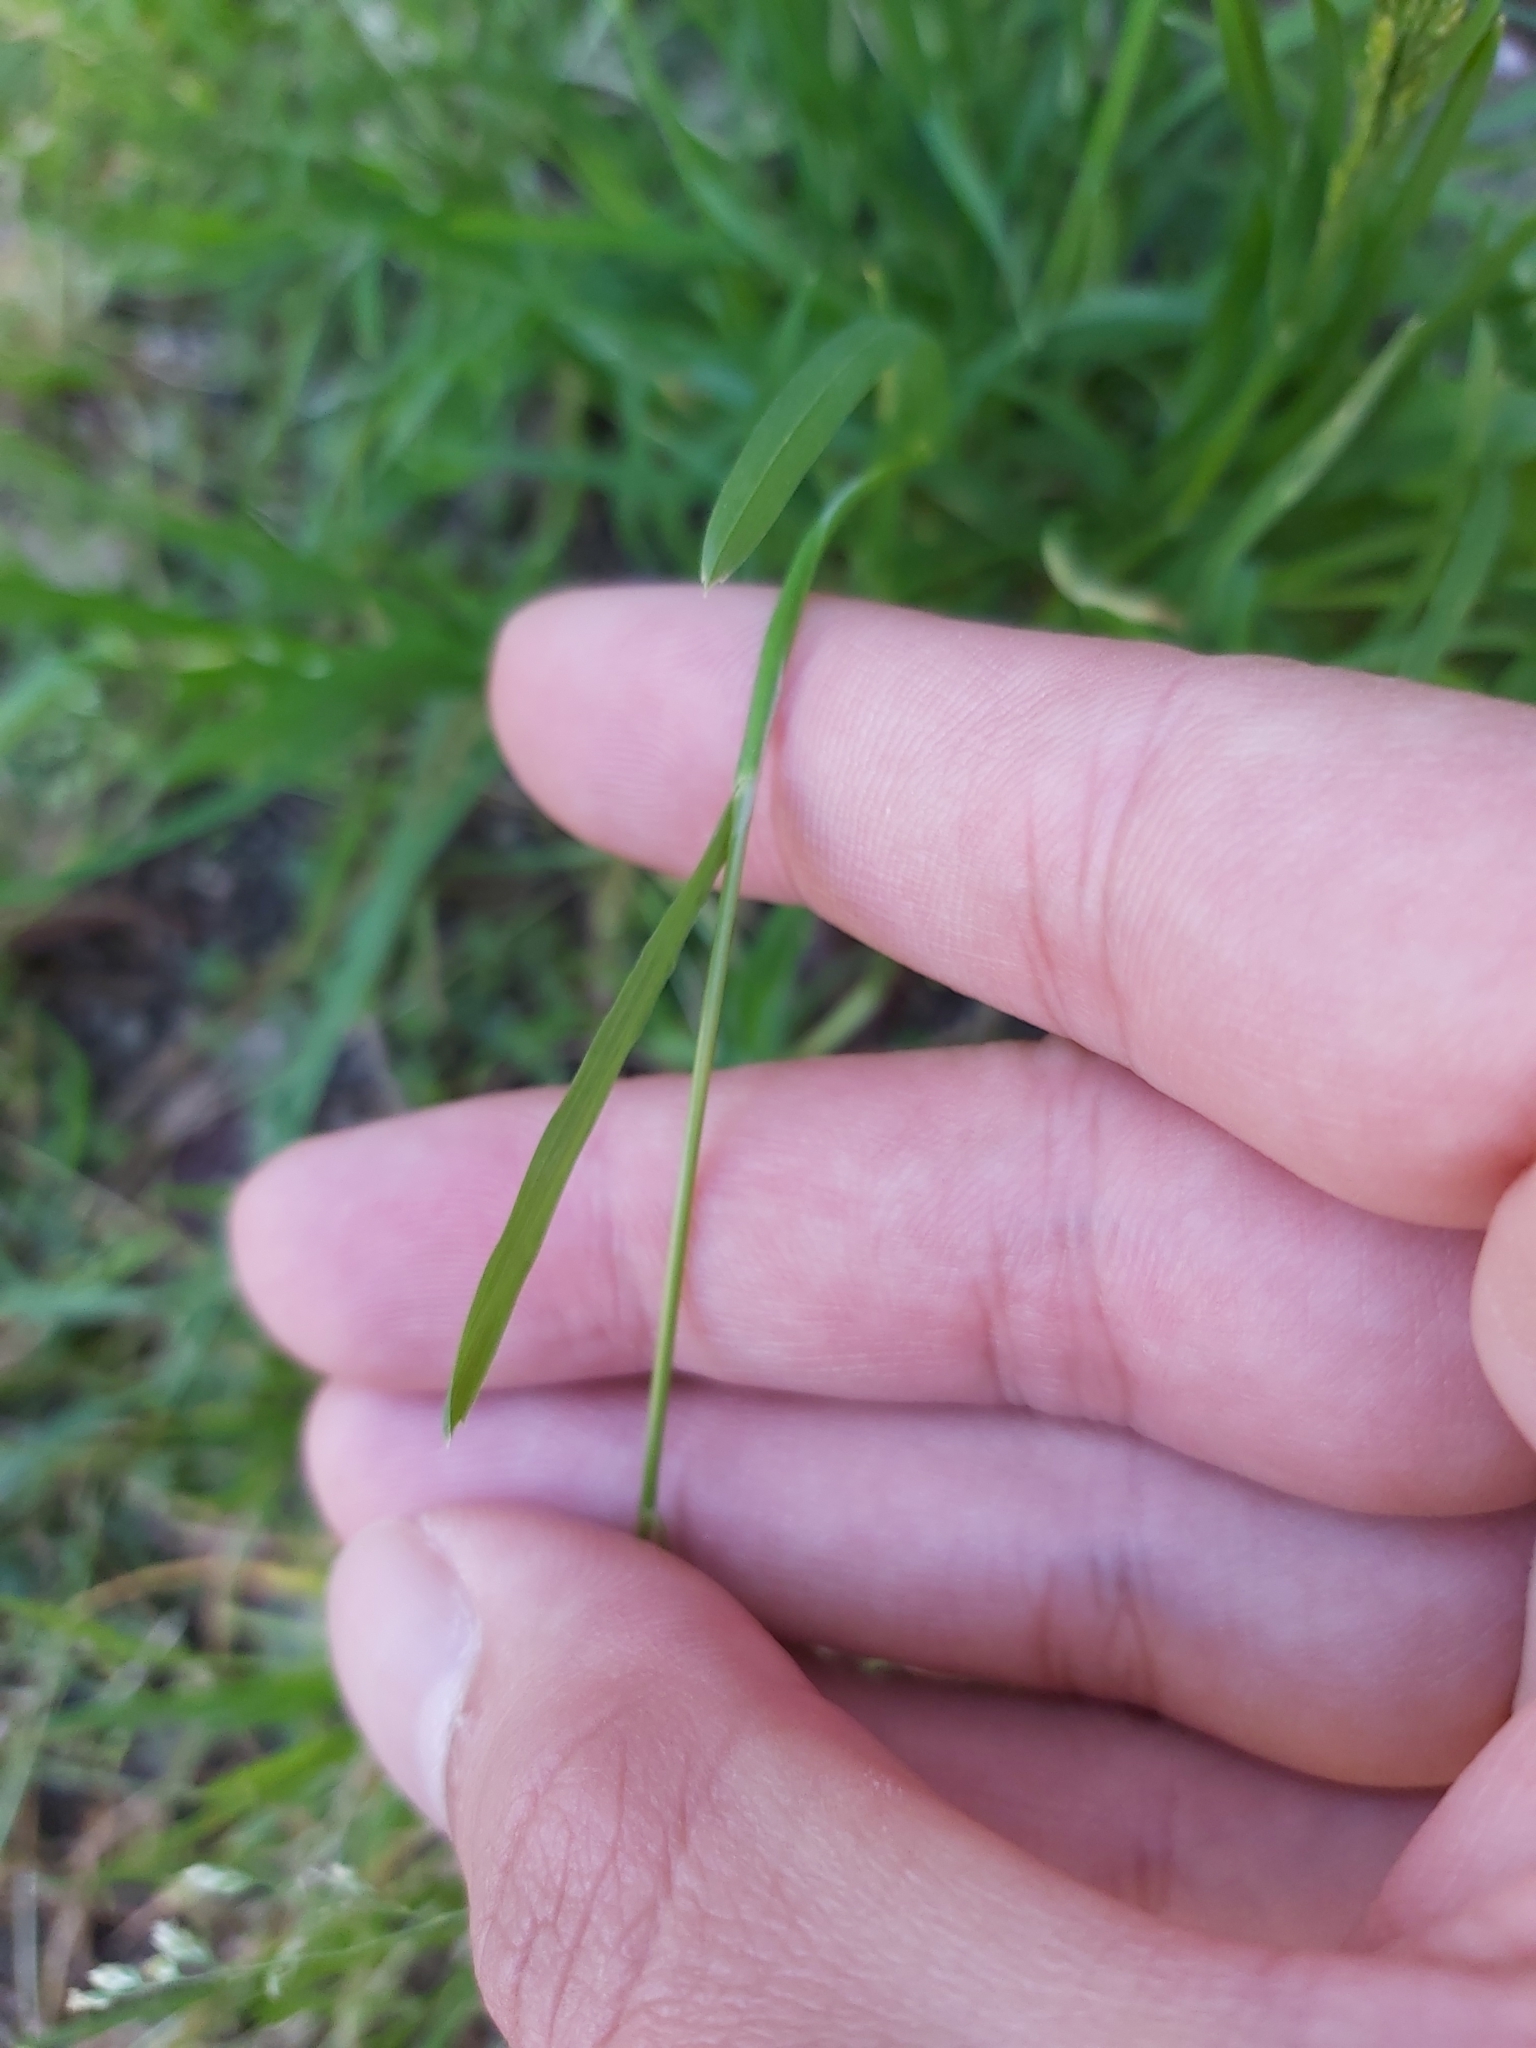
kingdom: Plantae
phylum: Tracheophyta
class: Liliopsida
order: Poales
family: Poaceae
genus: Poa
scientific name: Poa annua
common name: Annual bluegrass
